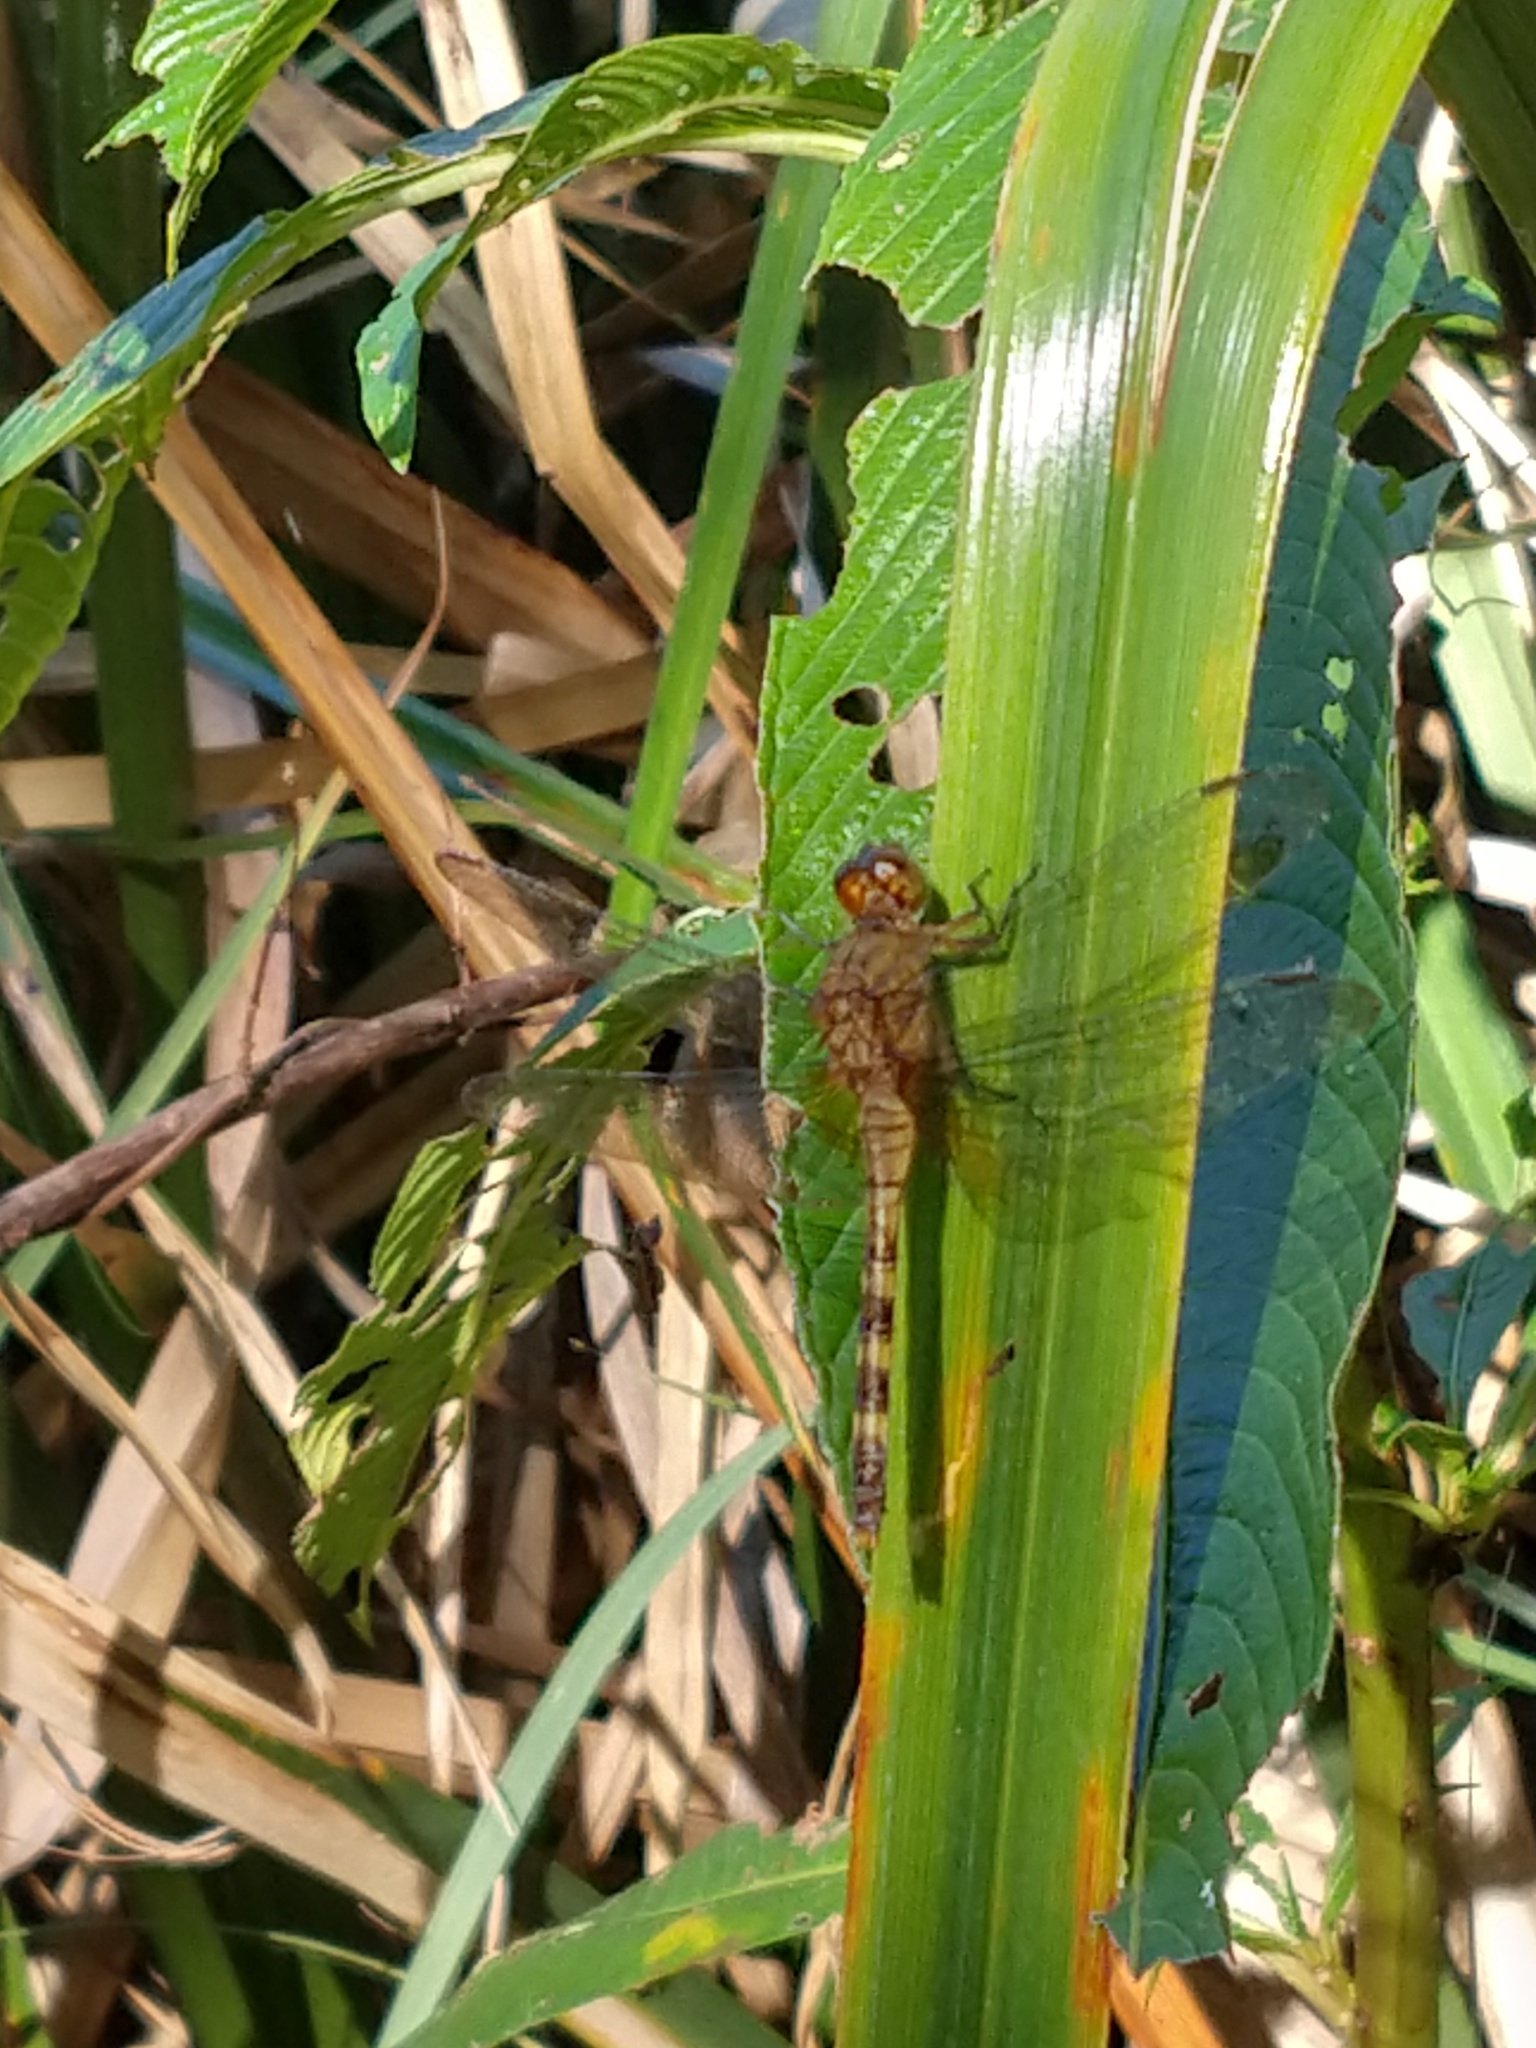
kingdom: Animalia
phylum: Arthropoda
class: Insecta
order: Odonata
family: Libellulidae
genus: Erythemis
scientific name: Erythemis attala
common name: Black pondhawk
